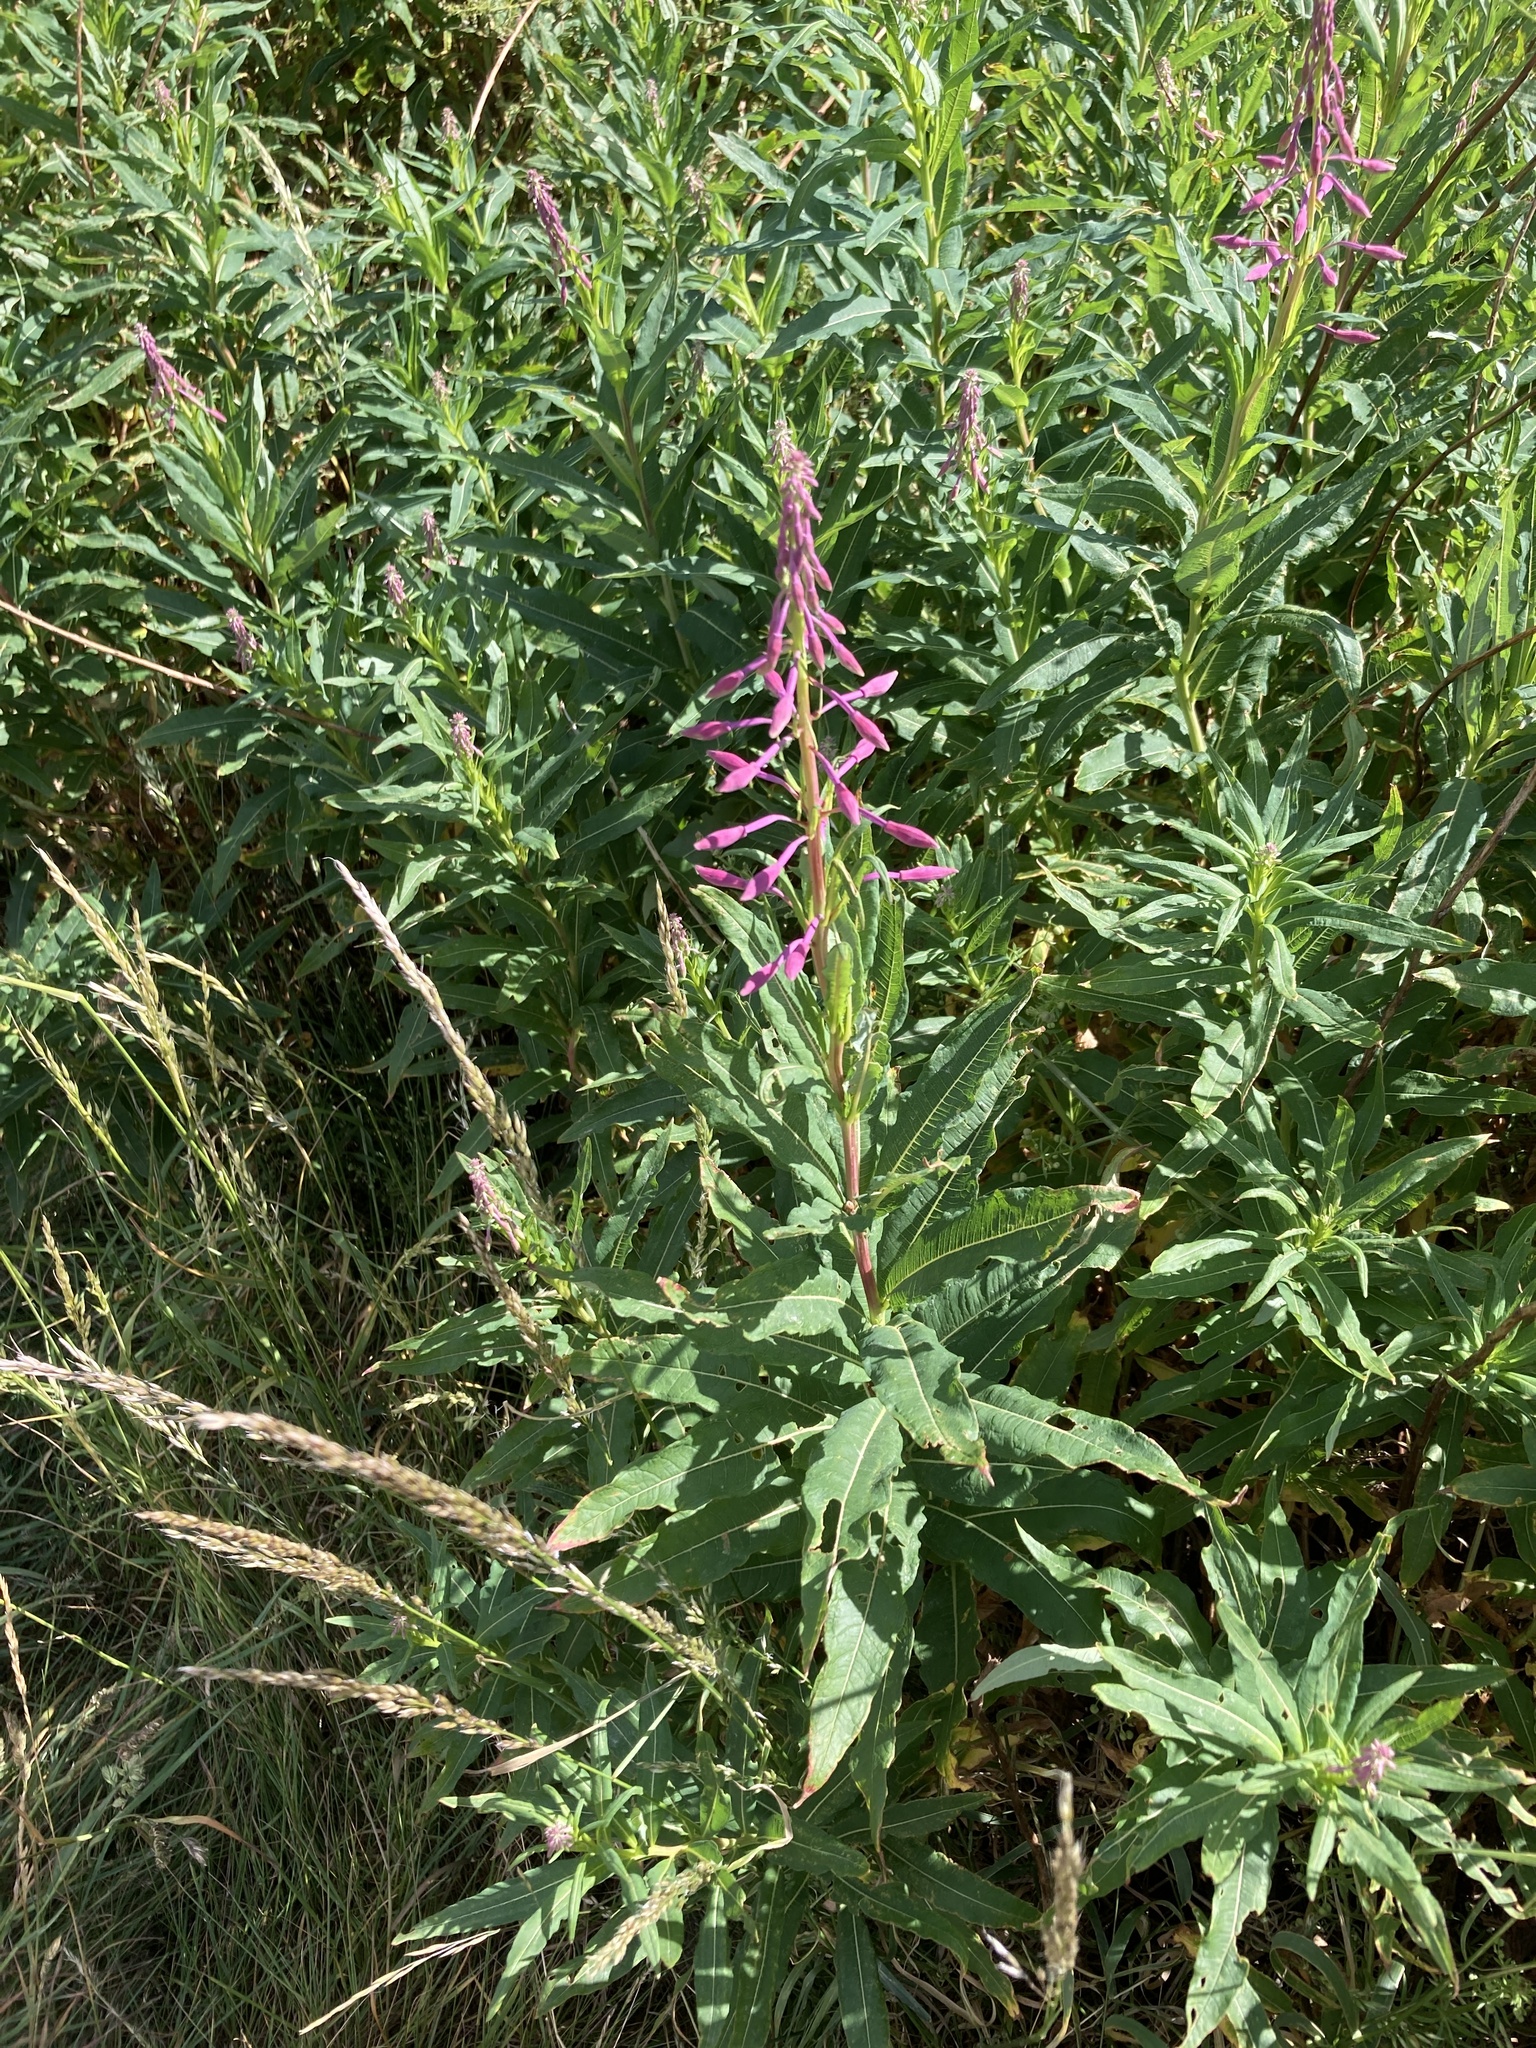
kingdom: Plantae
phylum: Tracheophyta
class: Magnoliopsida
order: Myrtales
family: Onagraceae
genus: Chamaenerion
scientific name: Chamaenerion angustifolium
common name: Fireweed
